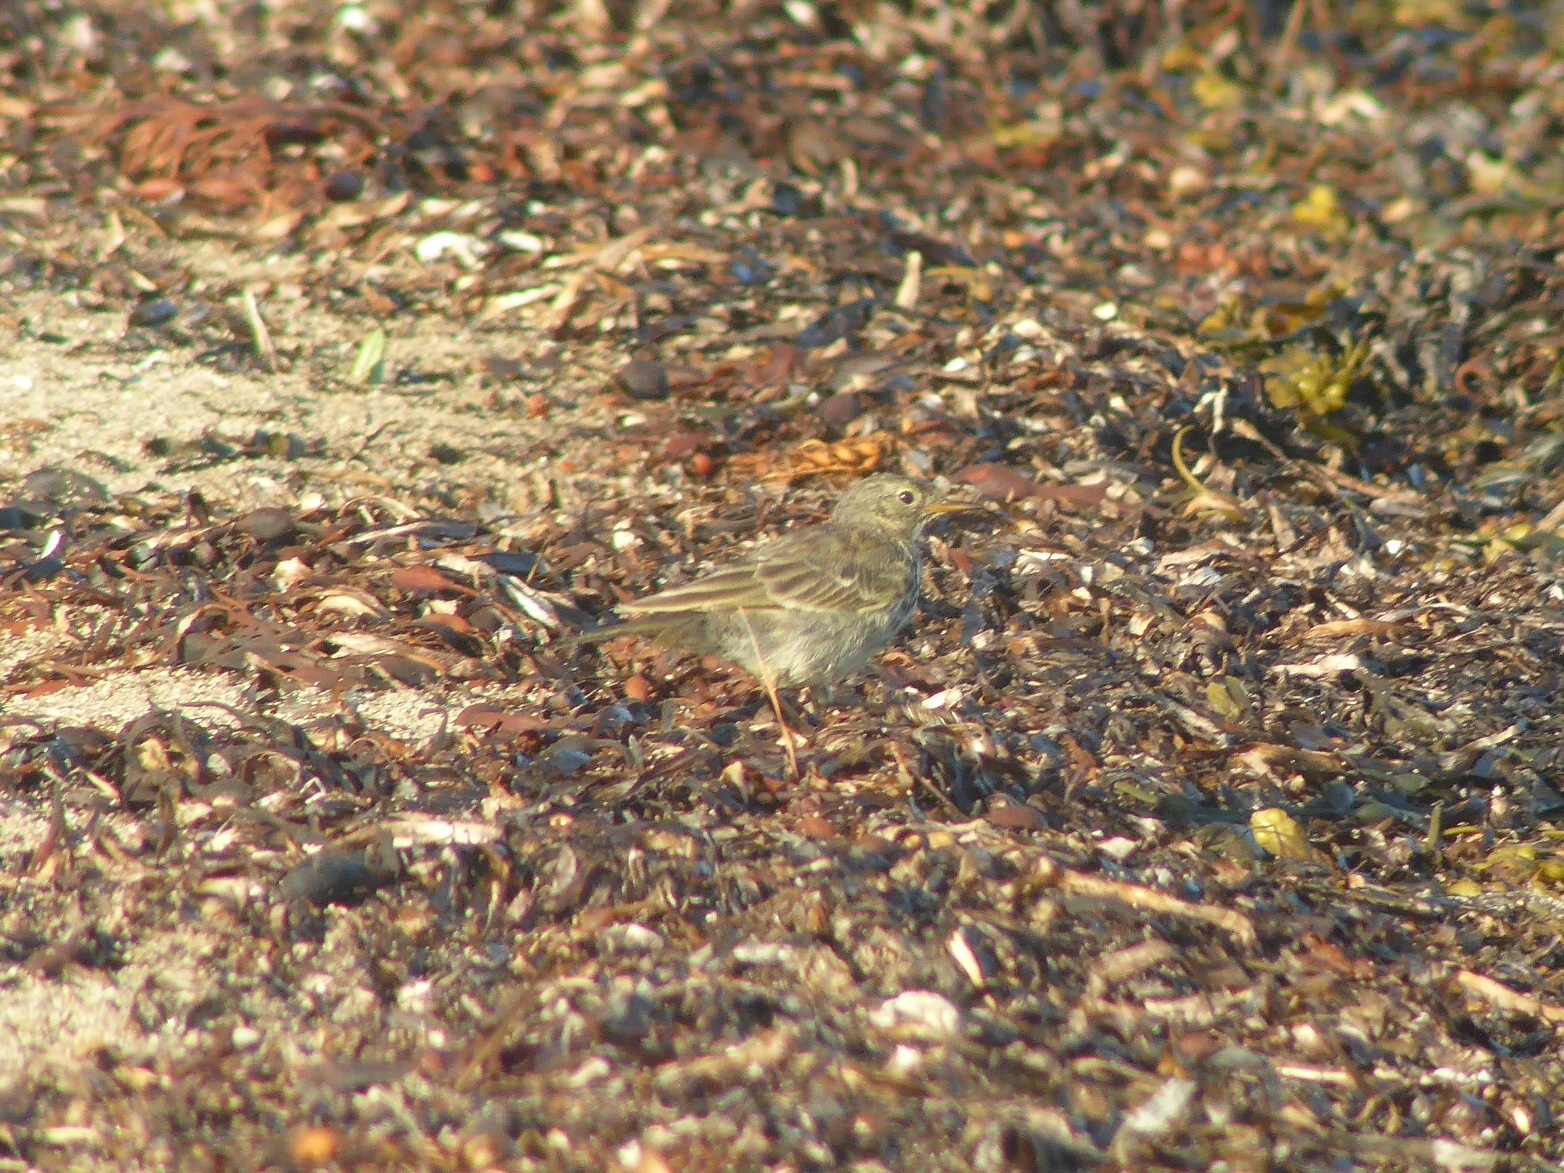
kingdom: Animalia
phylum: Chordata
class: Aves
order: Passeriformes
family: Motacillidae
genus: Anthus
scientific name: Anthus petrosus
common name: Eurasian rock pipit
